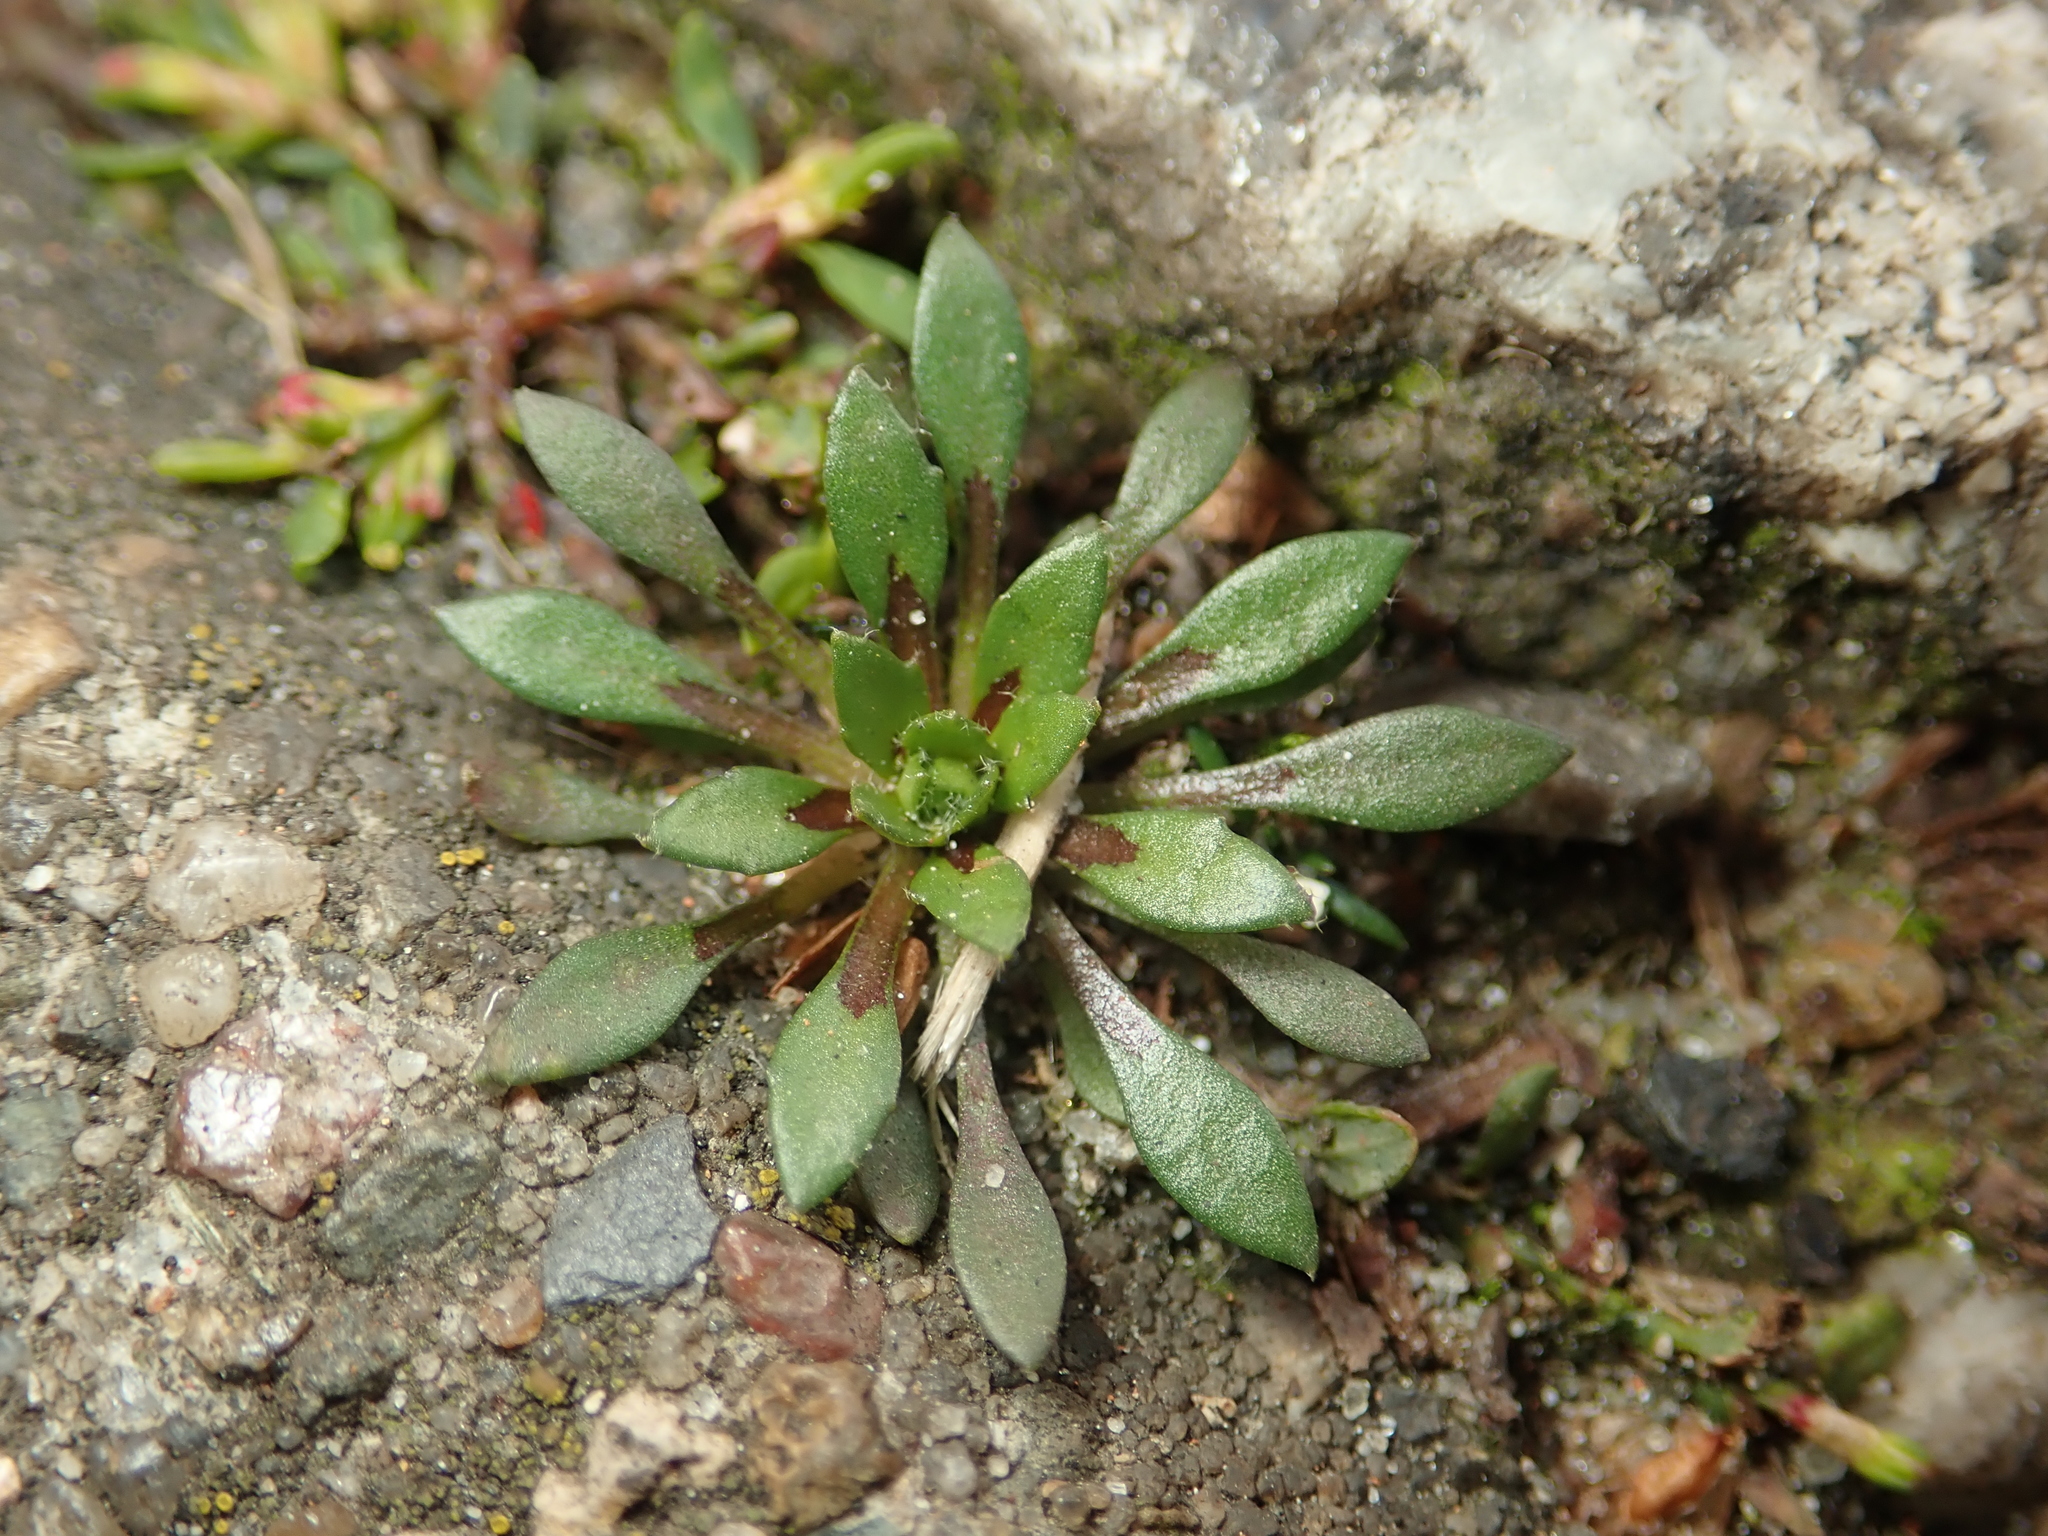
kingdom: Plantae
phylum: Tracheophyta
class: Magnoliopsida
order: Brassicales
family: Brassicaceae
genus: Draba
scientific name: Draba verna
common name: Spring draba
